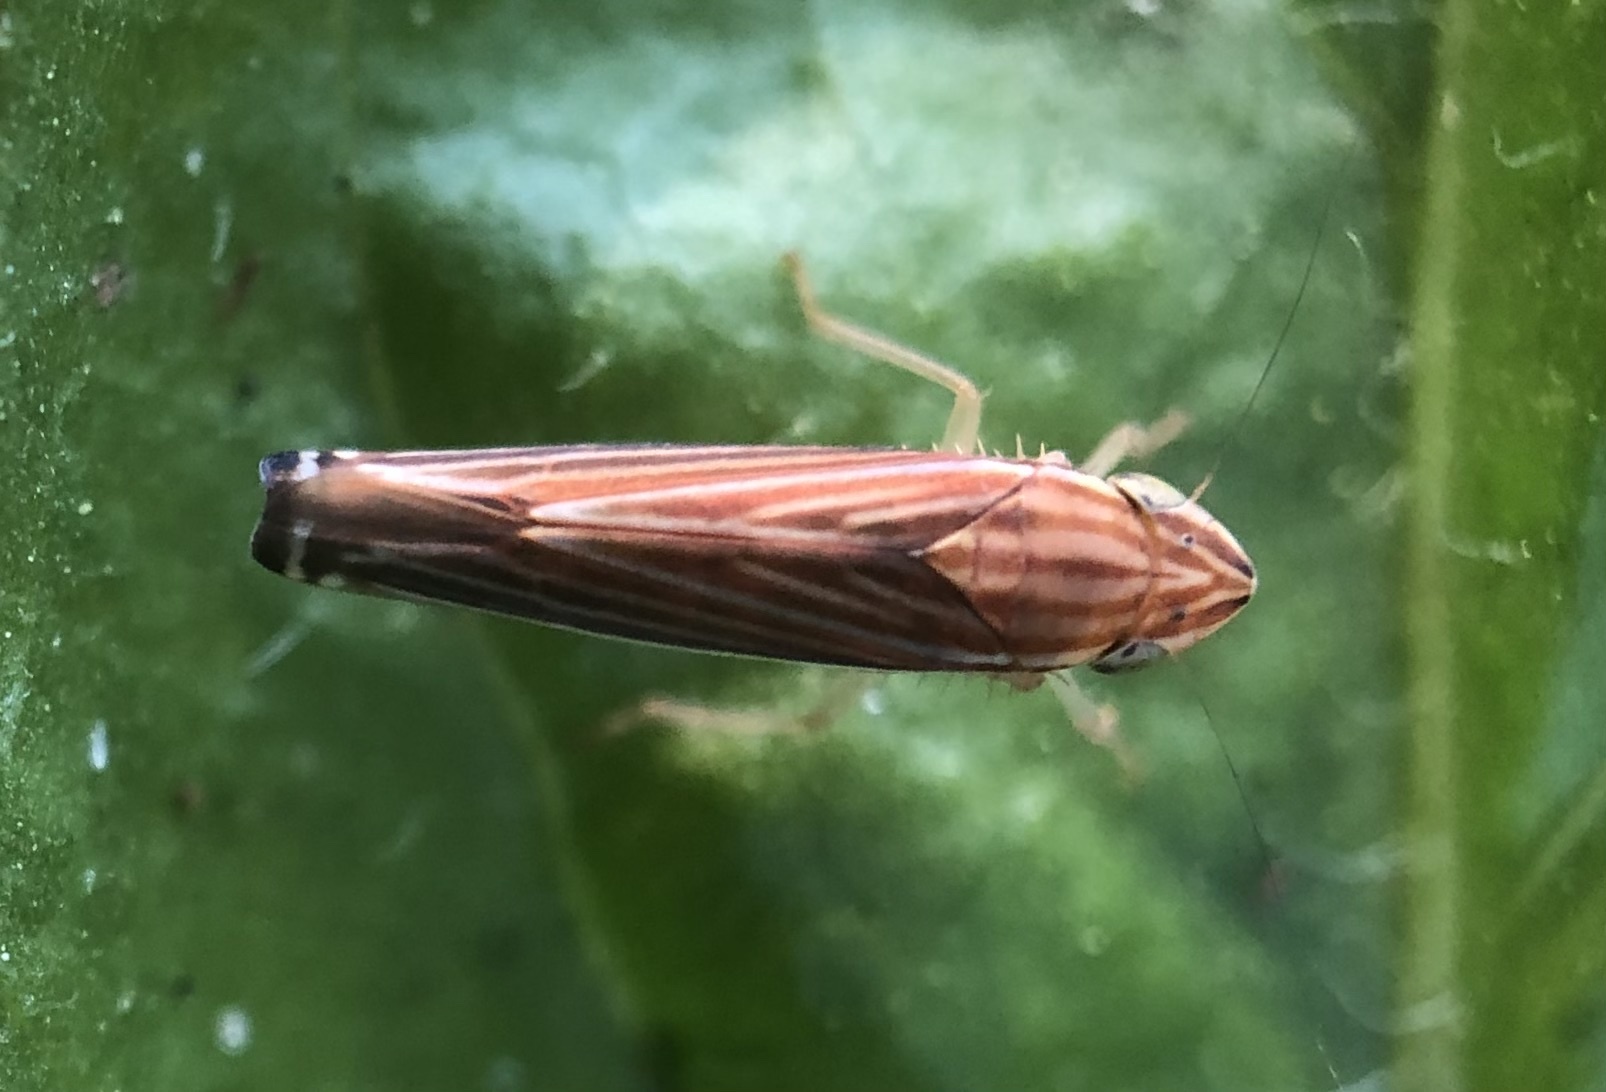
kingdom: Animalia
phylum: Arthropoda
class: Insecta
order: Hemiptera
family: Cicadellidae
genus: Sibovia
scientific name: Sibovia occatoria
